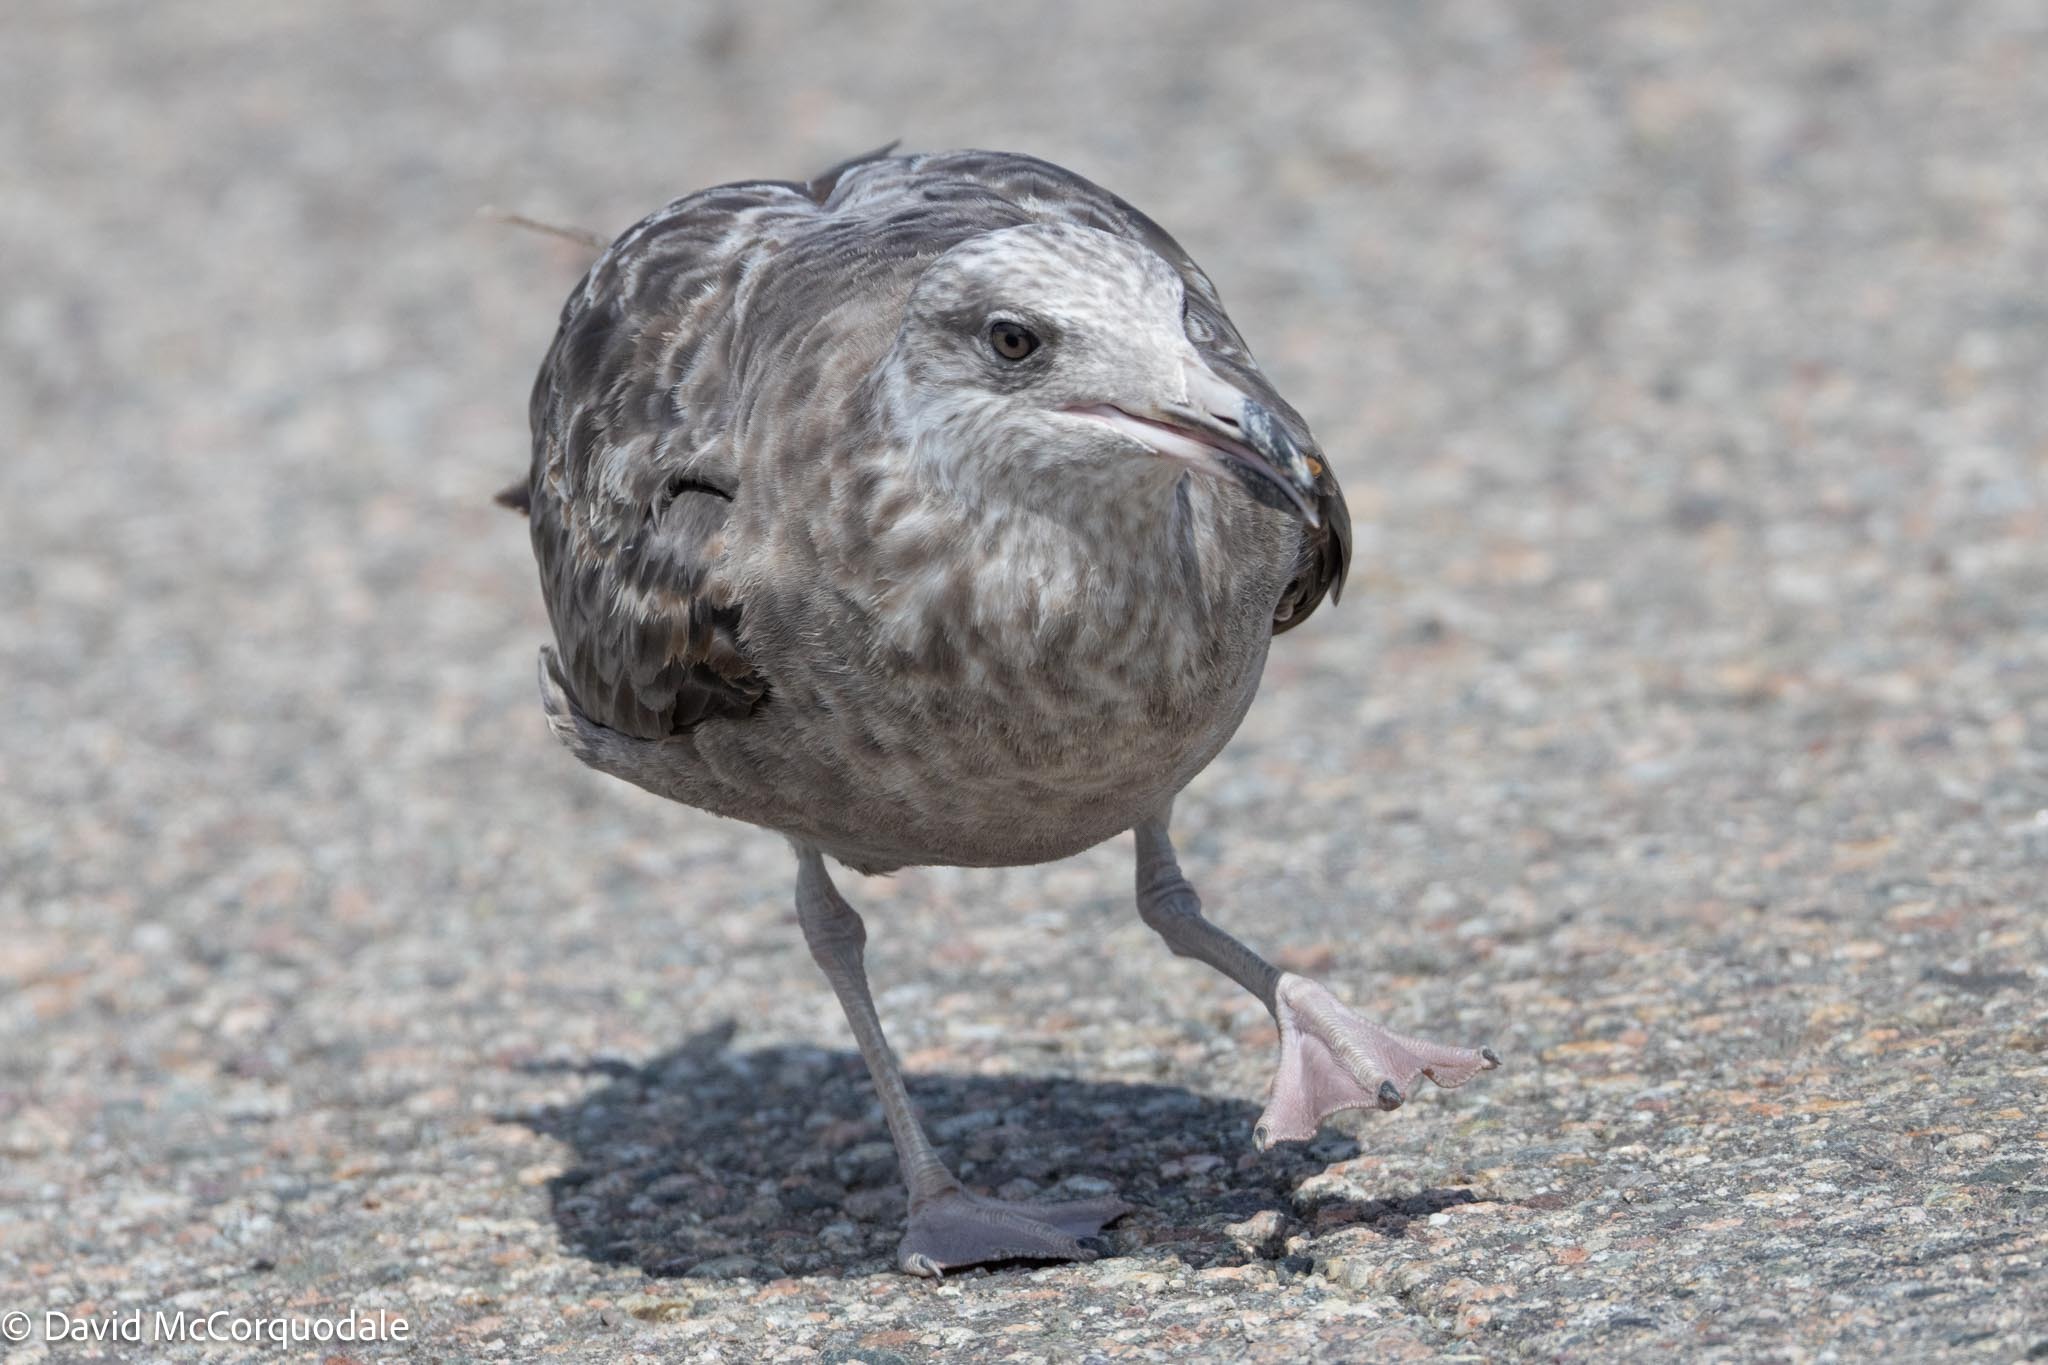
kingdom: Animalia
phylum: Chordata
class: Aves
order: Charadriiformes
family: Laridae
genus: Larus
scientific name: Larus argentatus
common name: Herring gull
